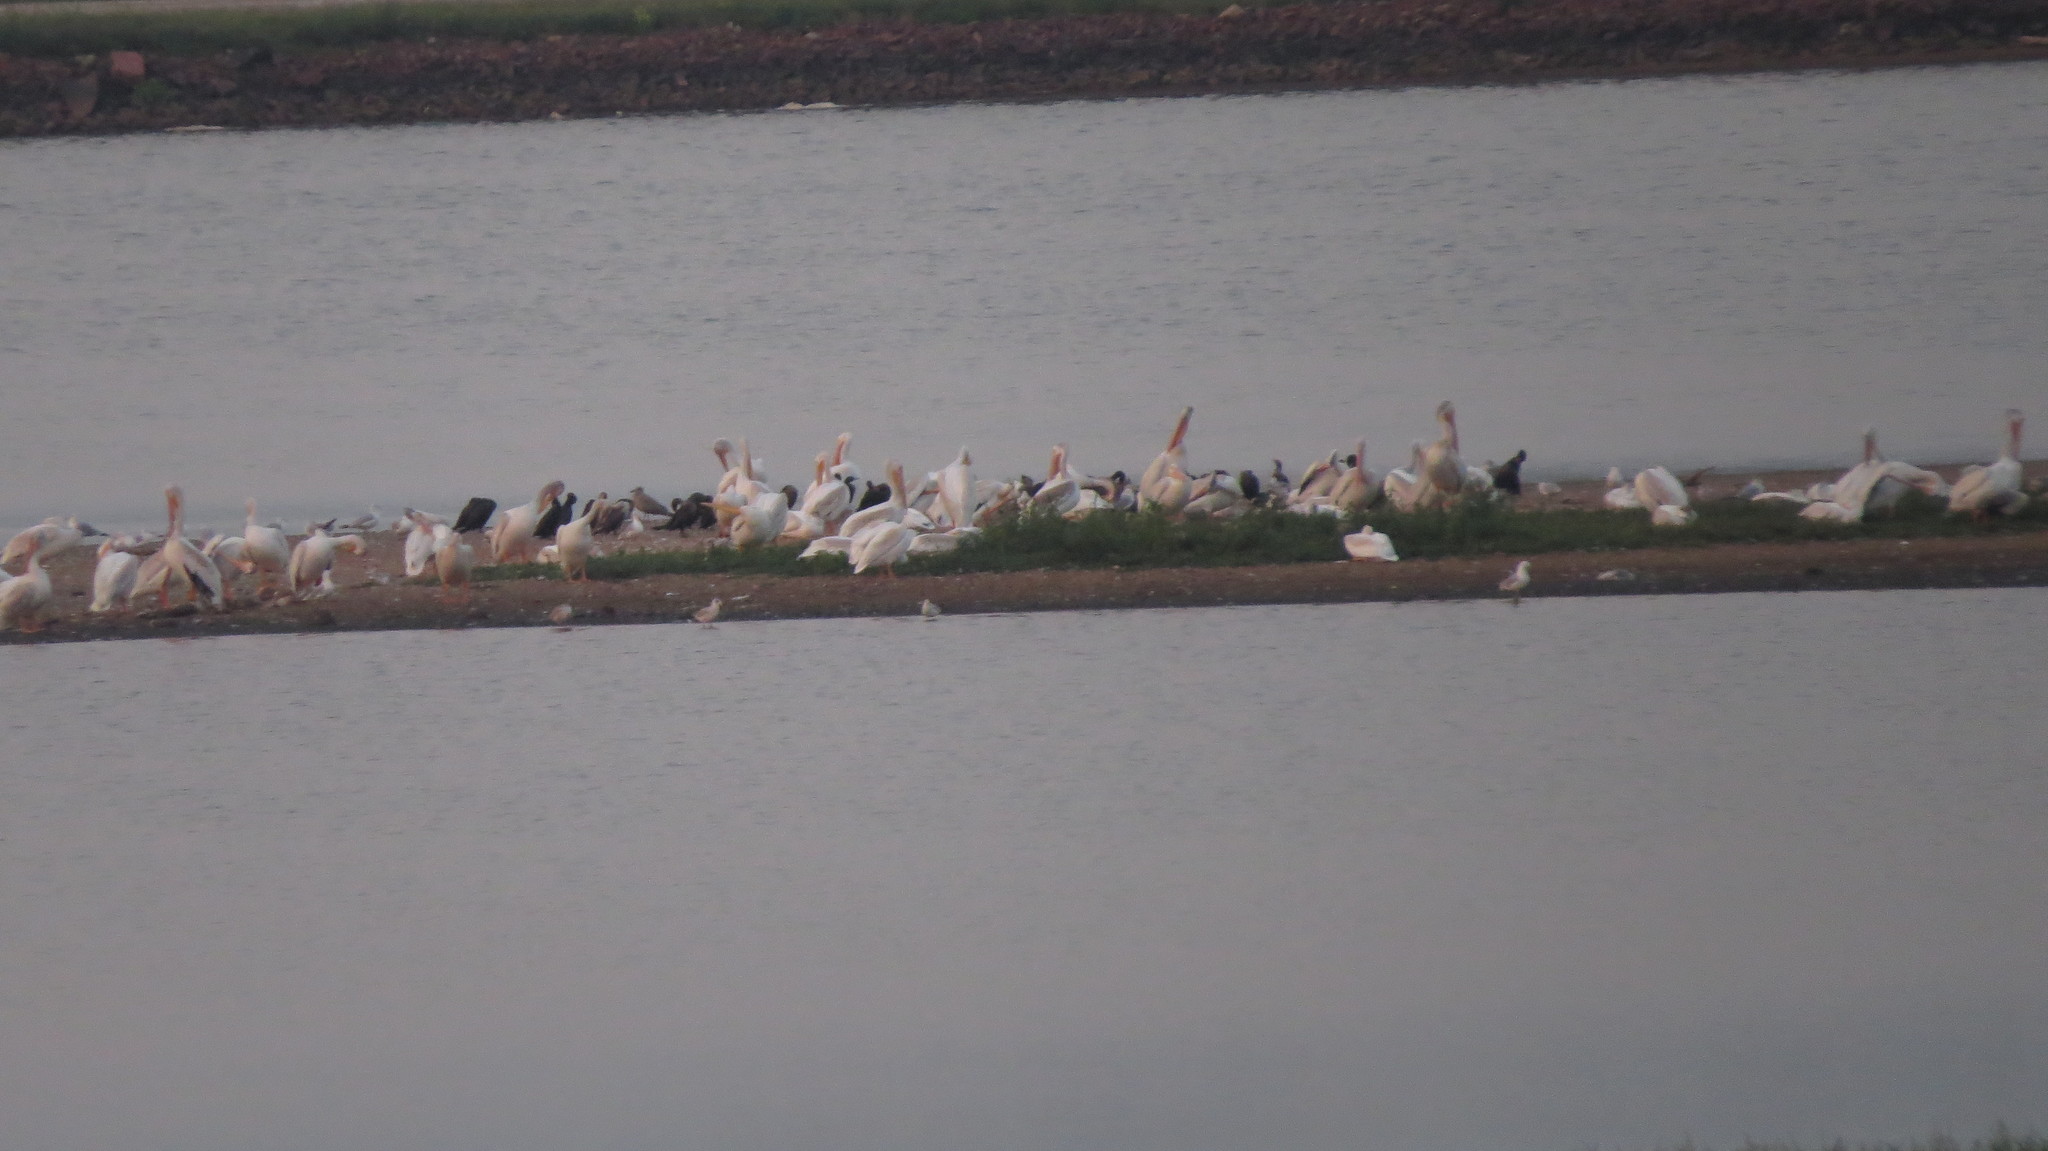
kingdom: Animalia
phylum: Chordata
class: Aves
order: Pelecaniformes
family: Pelecanidae
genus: Pelecanus
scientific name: Pelecanus erythrorhynchos
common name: American white pelican
